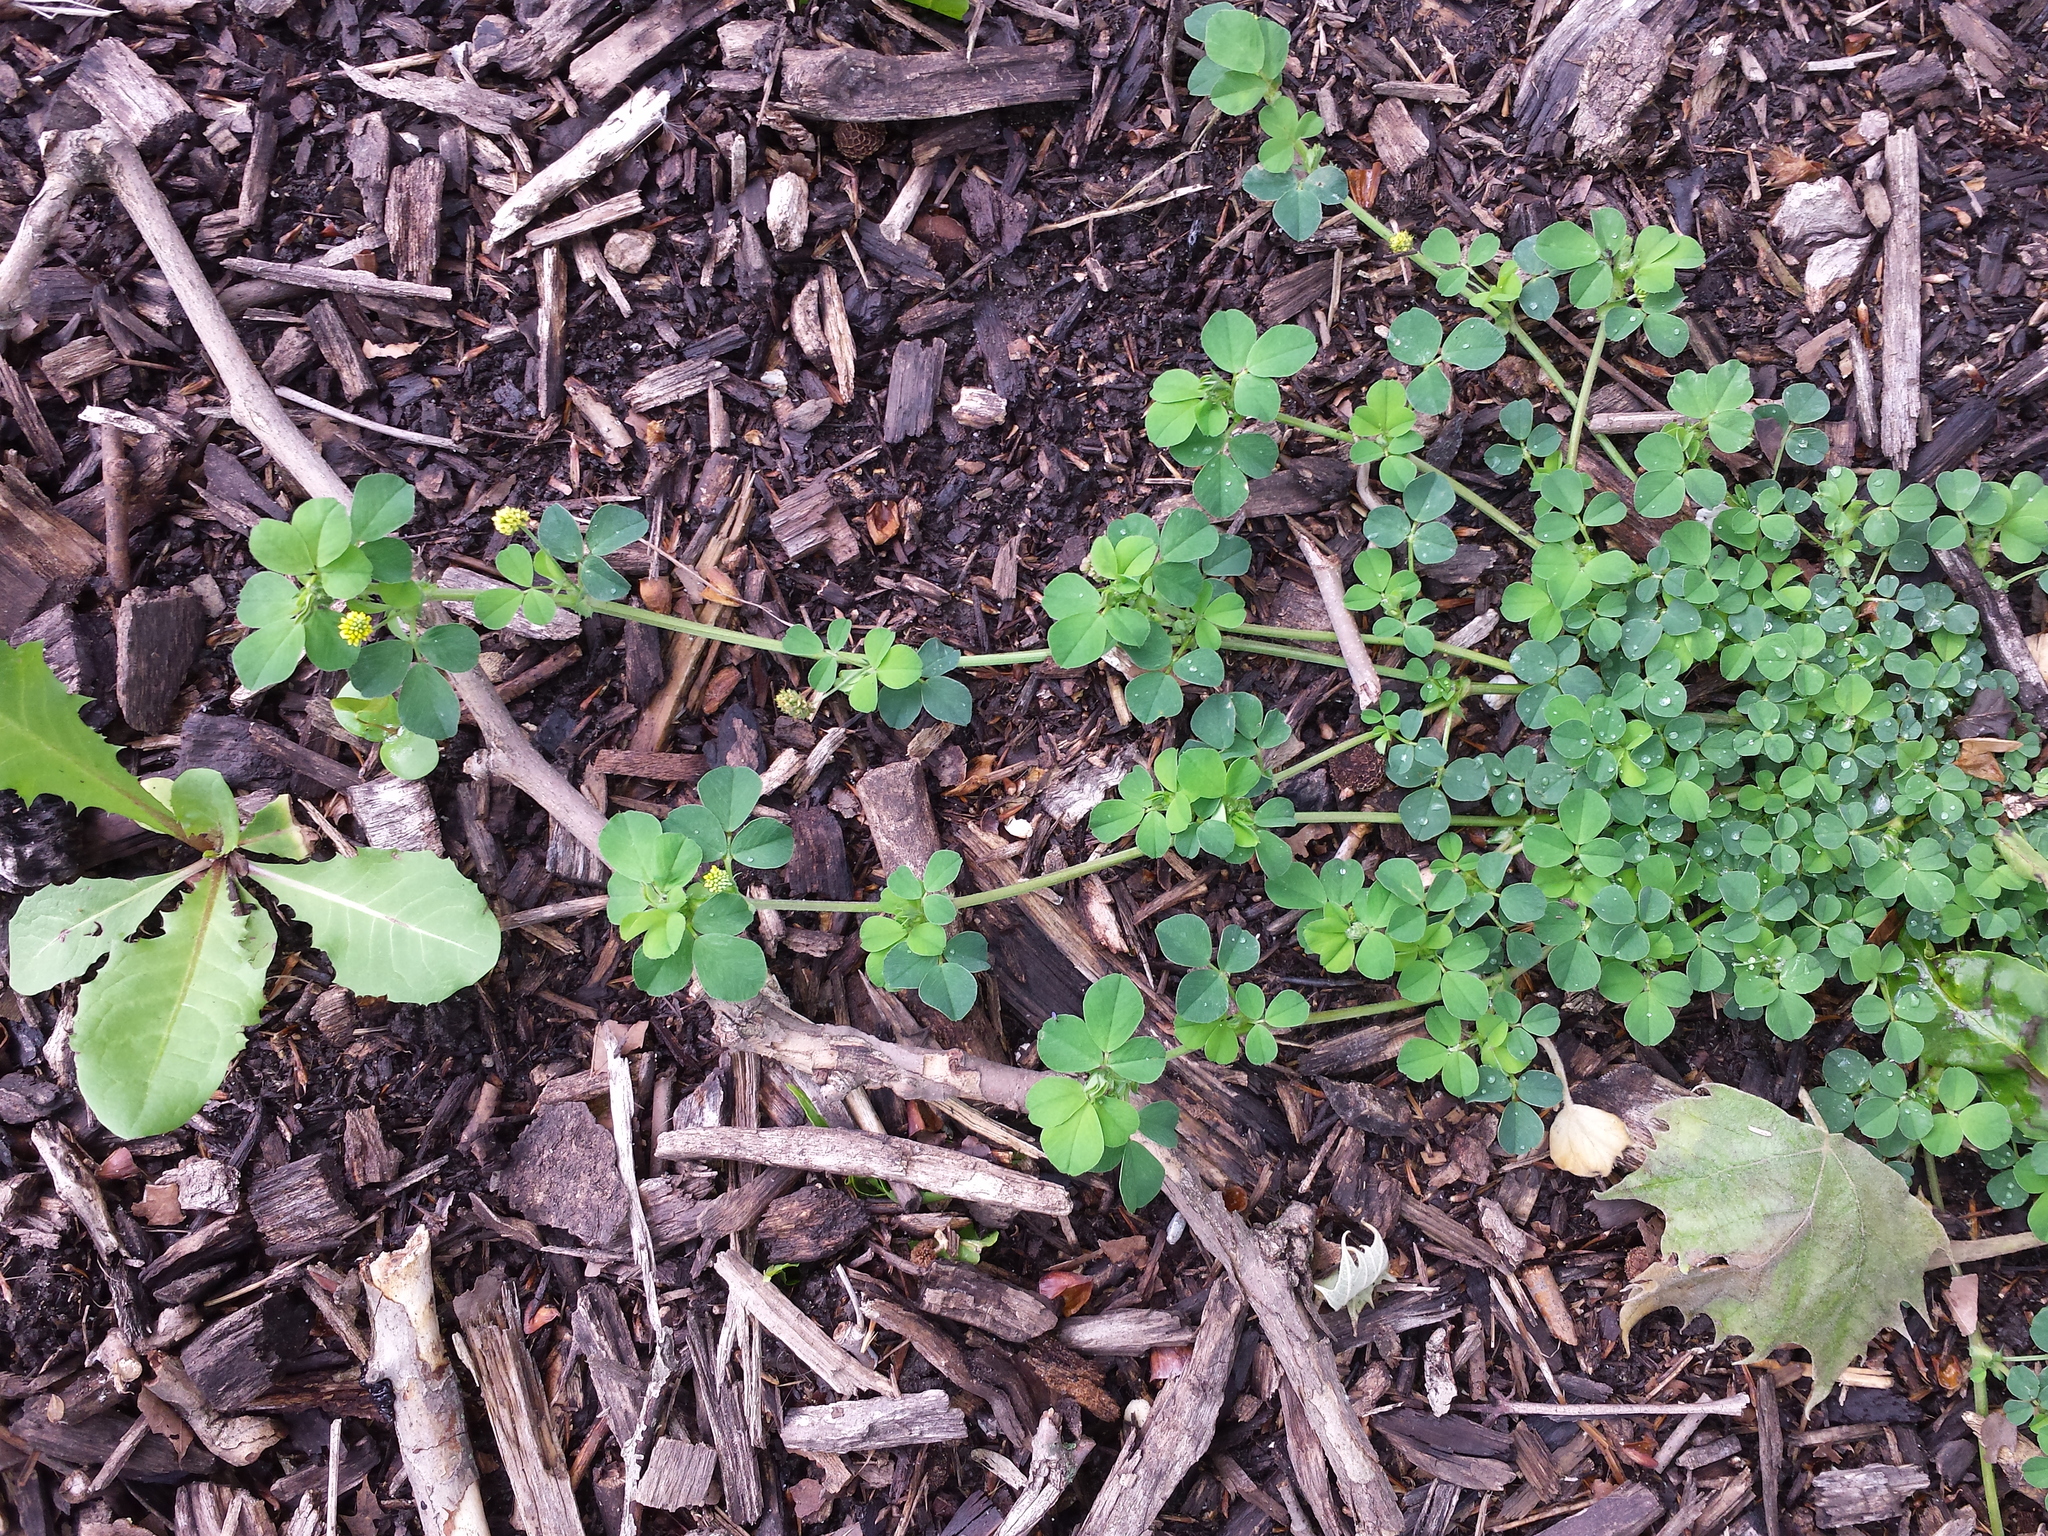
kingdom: Plantae
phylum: Tracheophyta
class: Magnoliopsida
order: Fabales
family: Fabaceae
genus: Medicago
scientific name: Medicago lupulina
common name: Black medick
